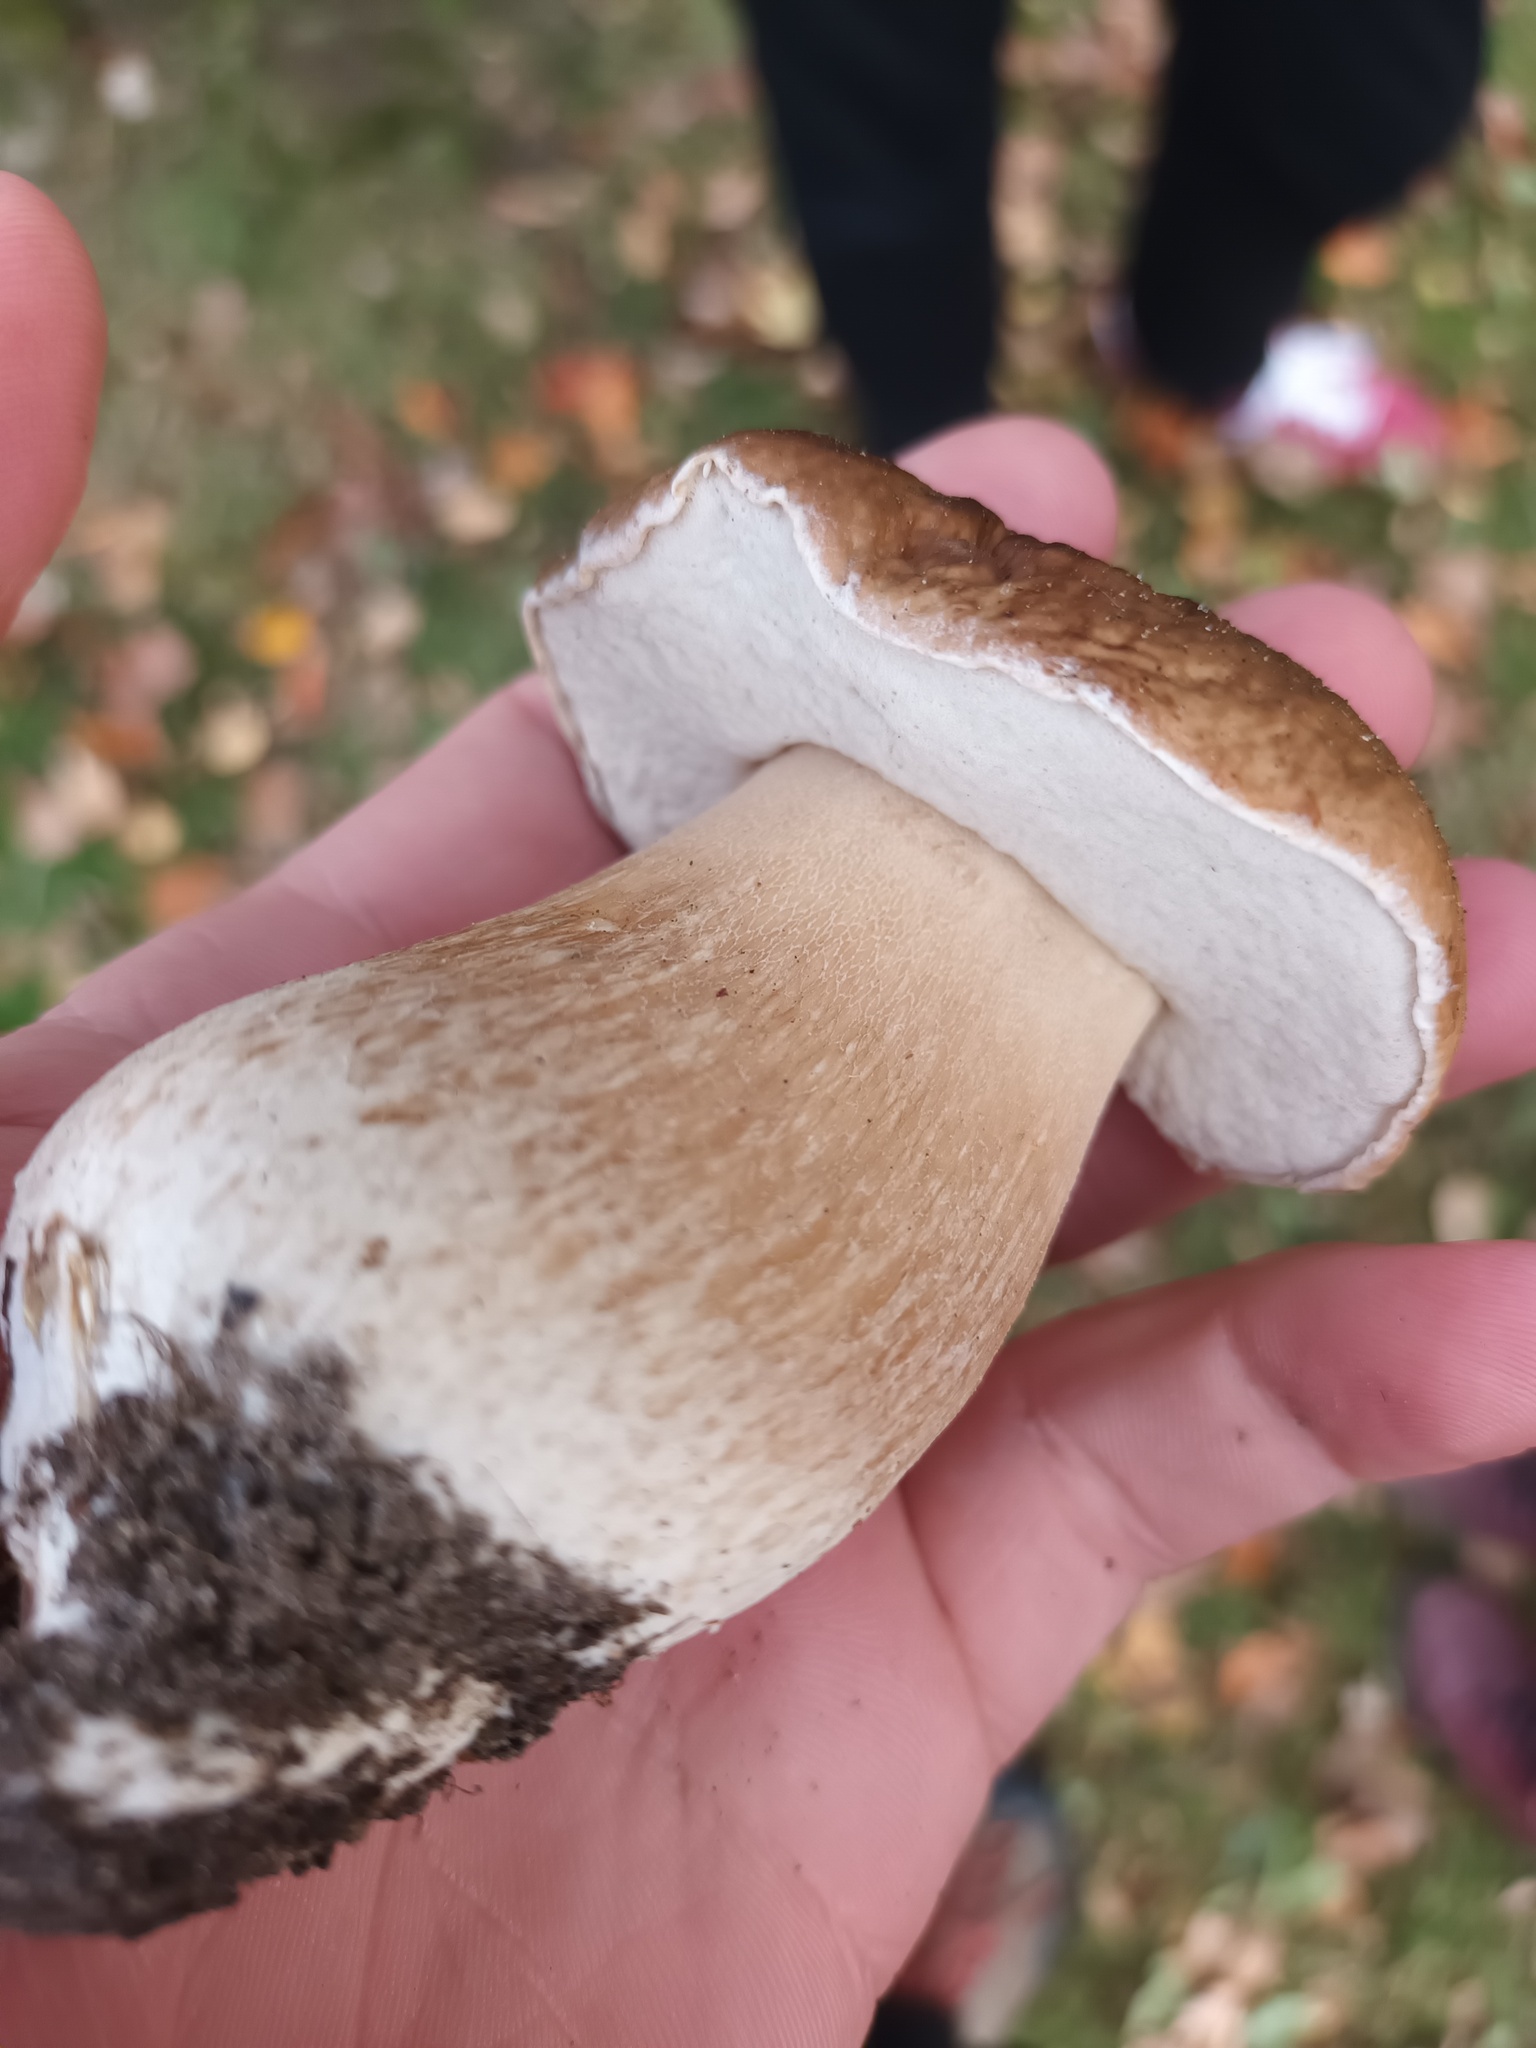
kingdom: Fungi
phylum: Basidiomycota
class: Agaricomycetes
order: Boletales
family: Boletaceae
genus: Boletus
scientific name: Boletus edulis
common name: Cep
